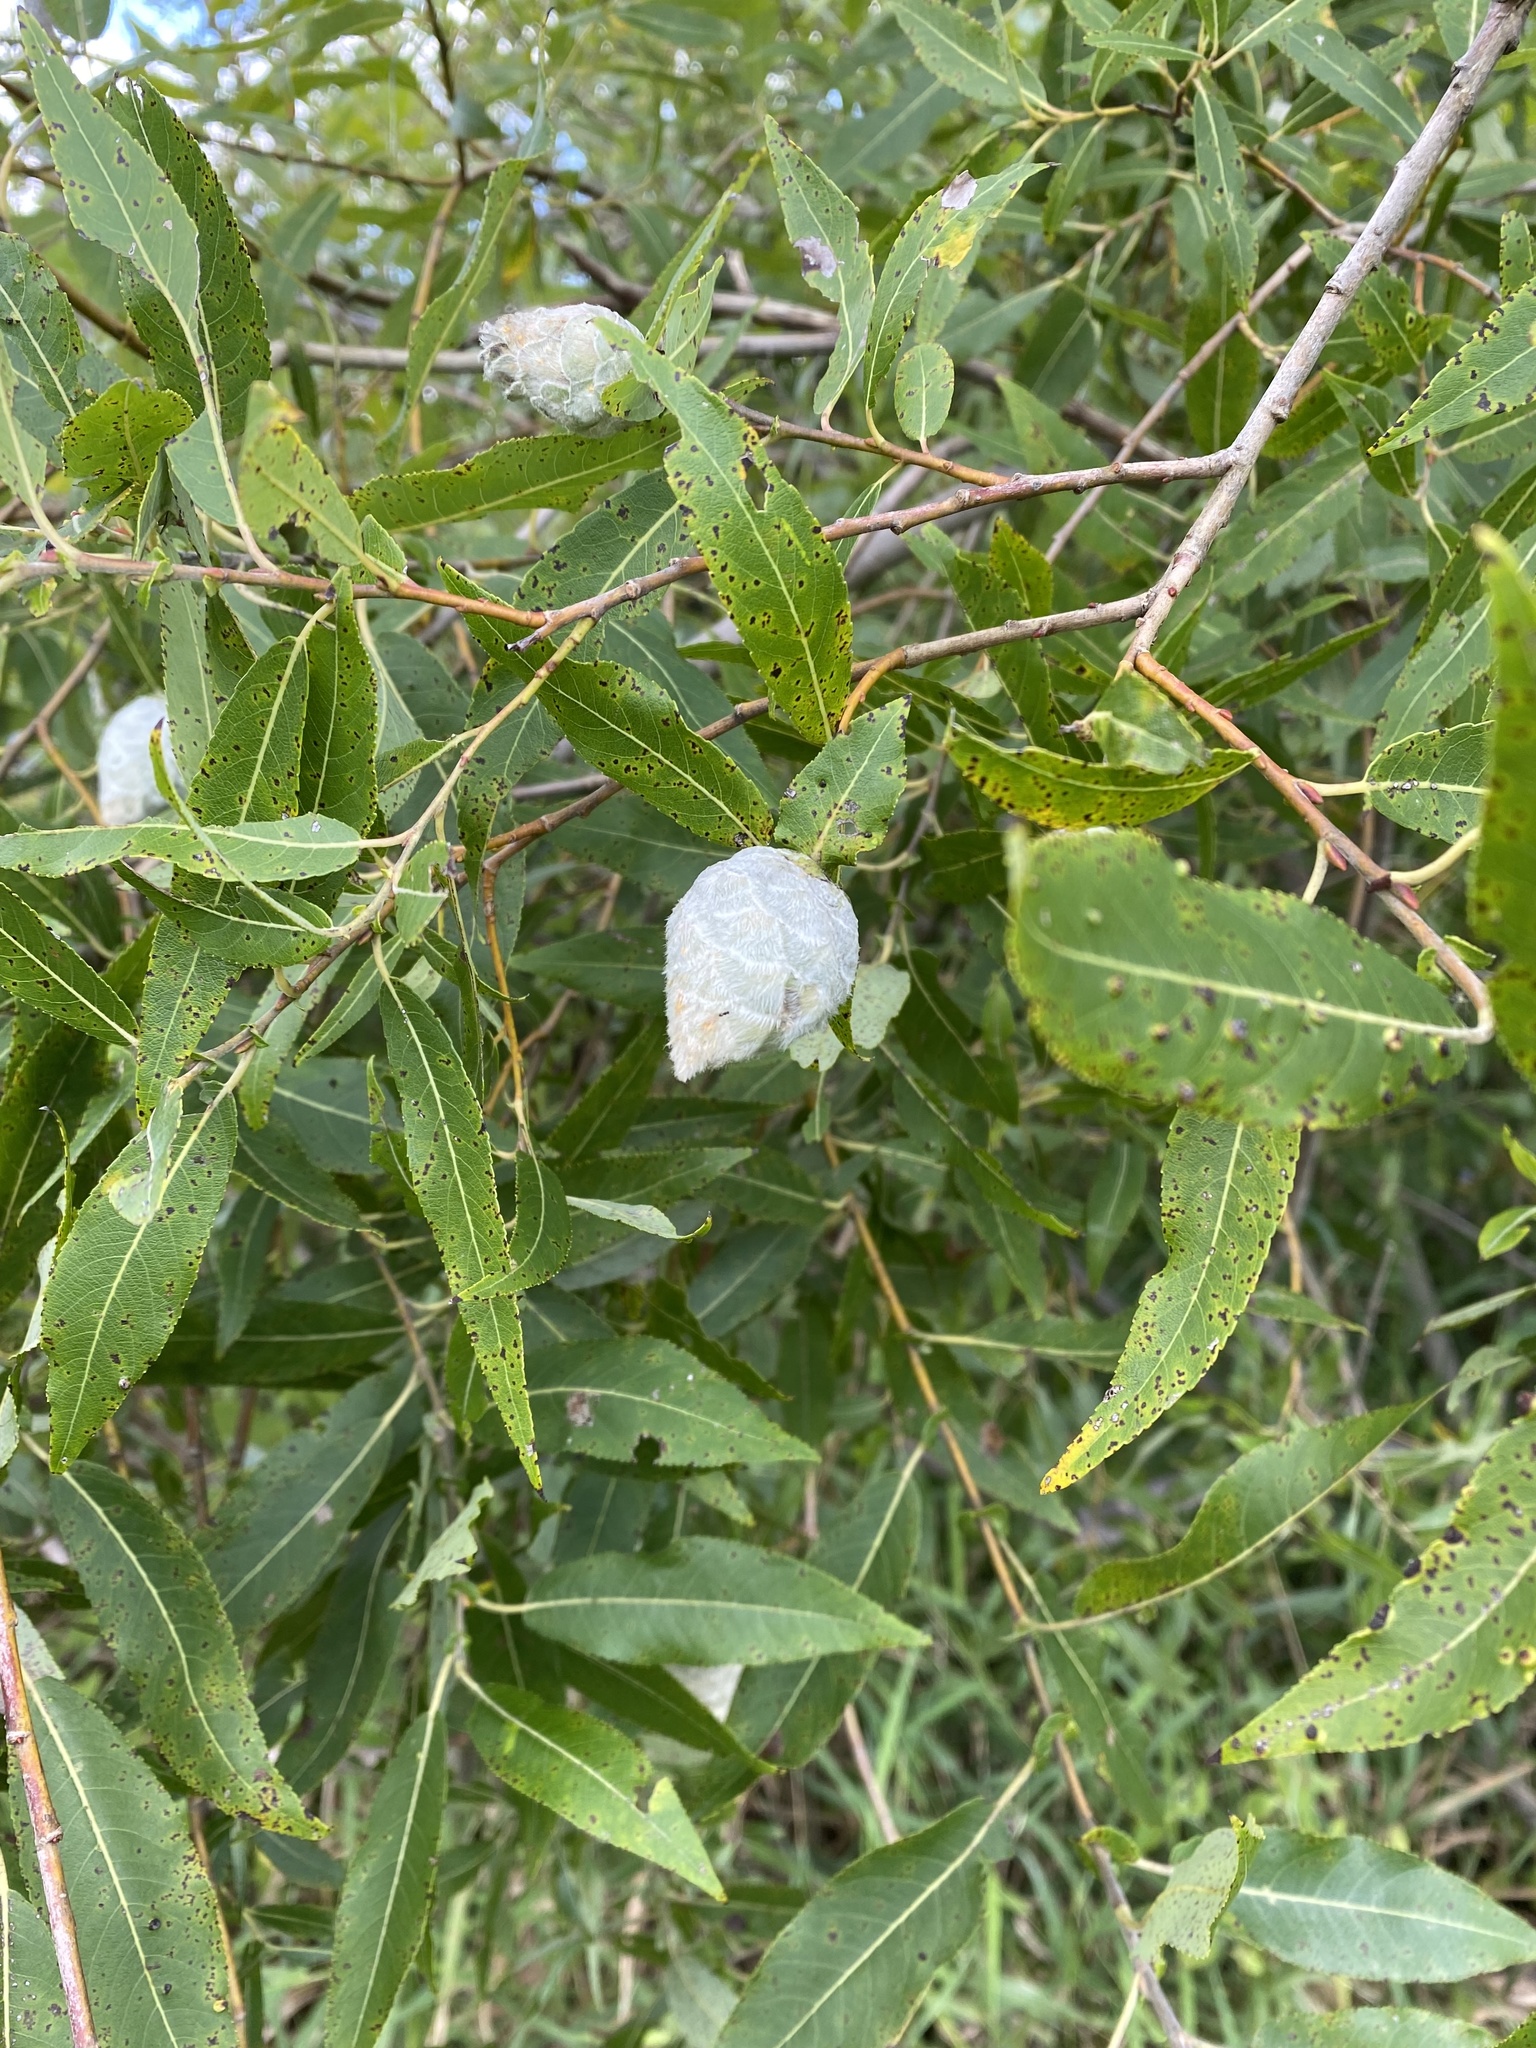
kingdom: Animalia
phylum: Arthropoda
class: Insecta
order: Diptera
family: Cecidomyiidae
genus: Rabdophaga
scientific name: Rabdophaga strobiloides
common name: Willow pinecone gall midge
